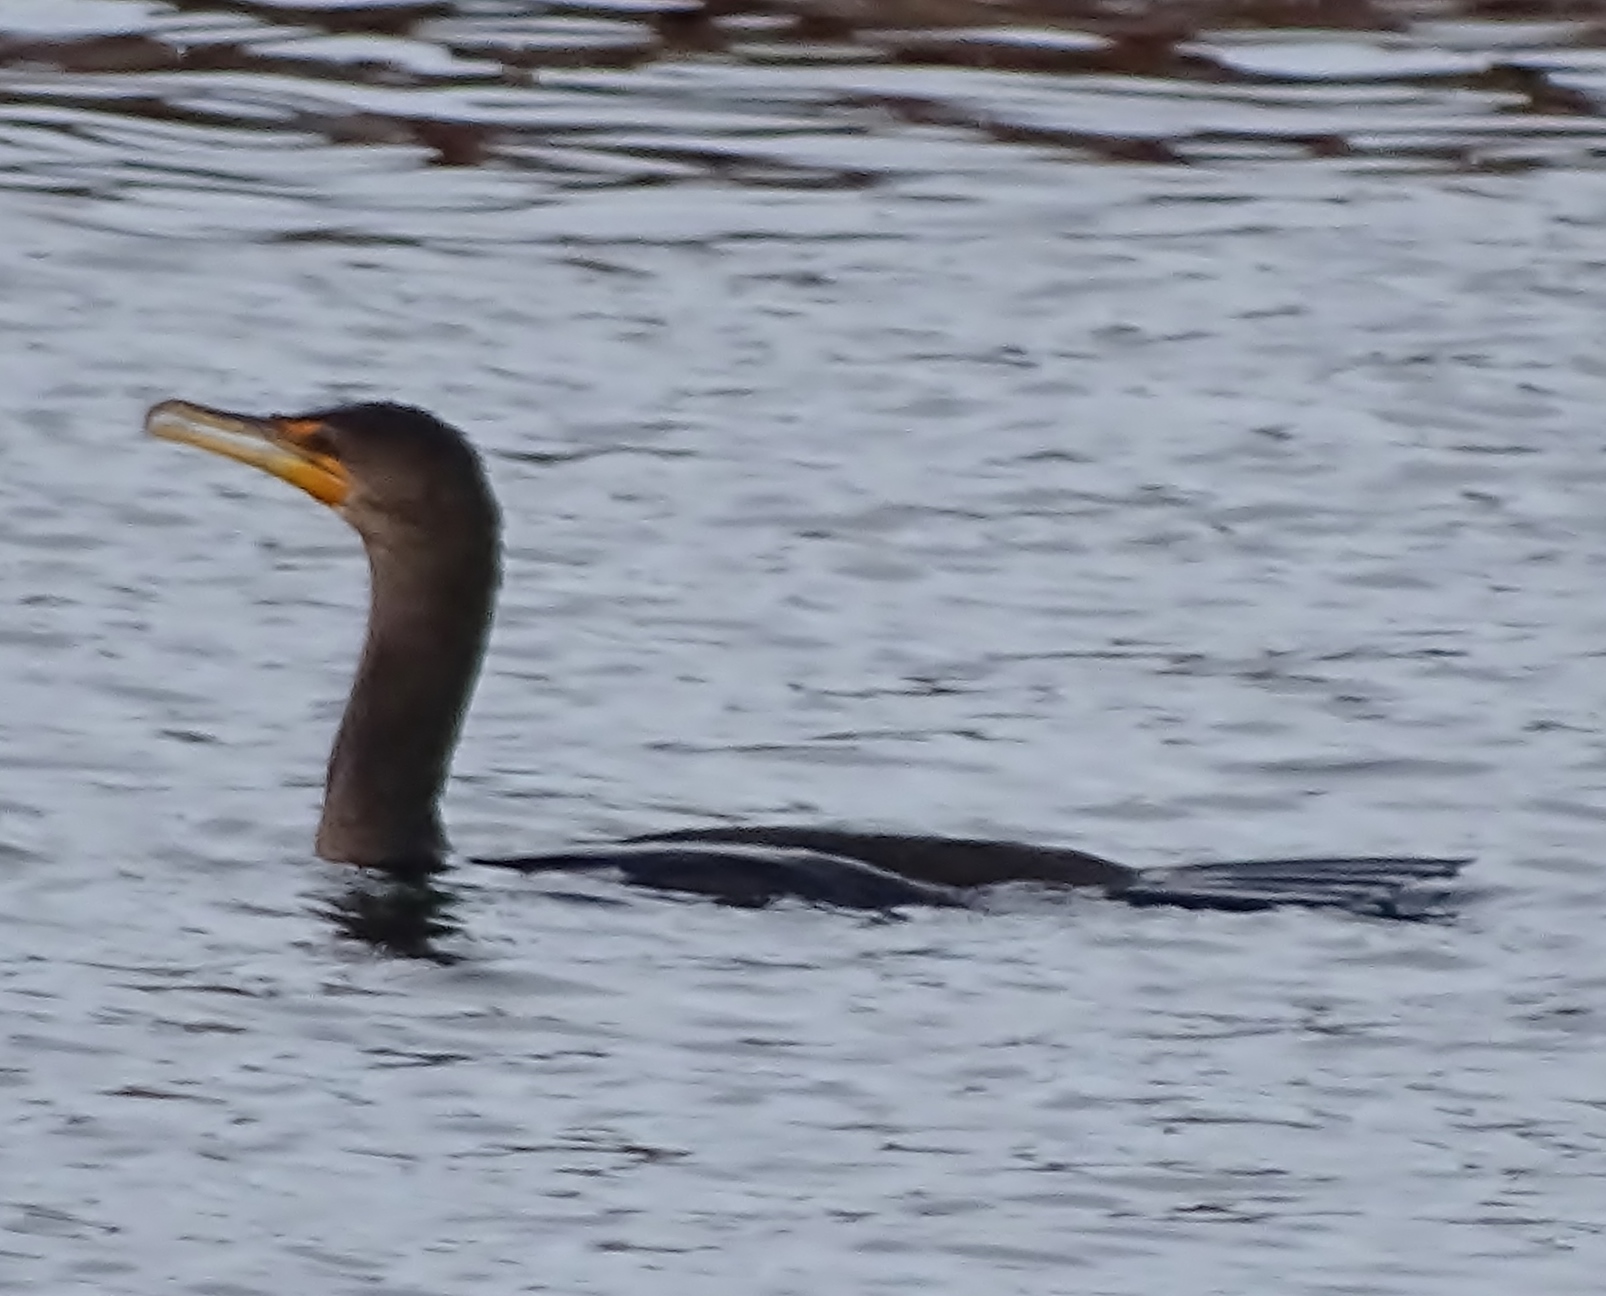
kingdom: Animalia
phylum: Chordata
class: Aves
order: Suliformes
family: Phalacrocoracidae
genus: Phalacrocorax
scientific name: Phalacrocorax auritus
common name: Double-crested cormorant
